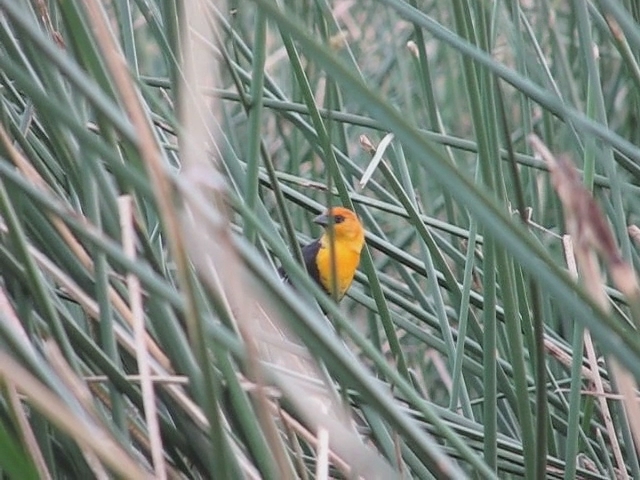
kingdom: Animalia
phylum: Chordata
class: Aves
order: Passeriformes
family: Icteridae
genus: Xanthocephalus
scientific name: Xanthocephalus xanthocephalus
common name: Yellow-headed blackbird
